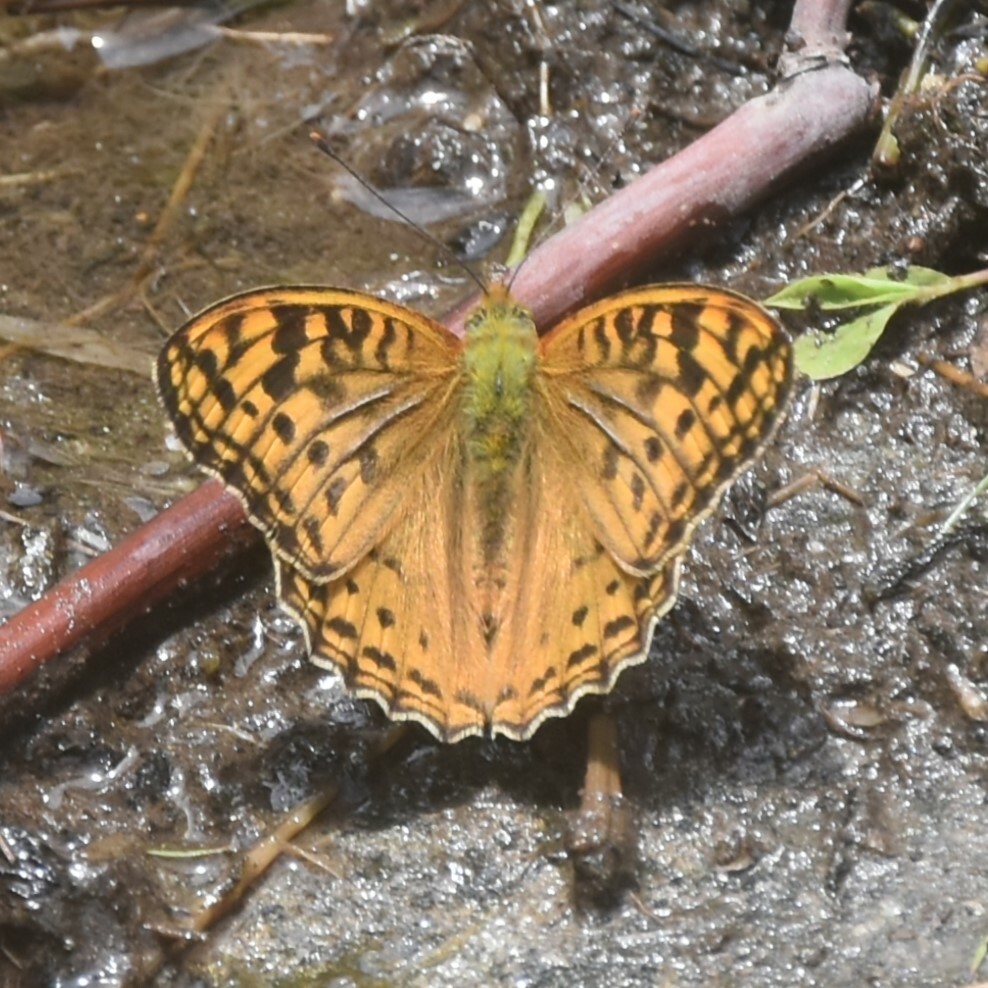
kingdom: Animalia
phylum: Arthropoda
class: Insecta
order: Lepidoptera
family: Nymphalidae
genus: Fabriciana
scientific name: Fabriciana kamala
